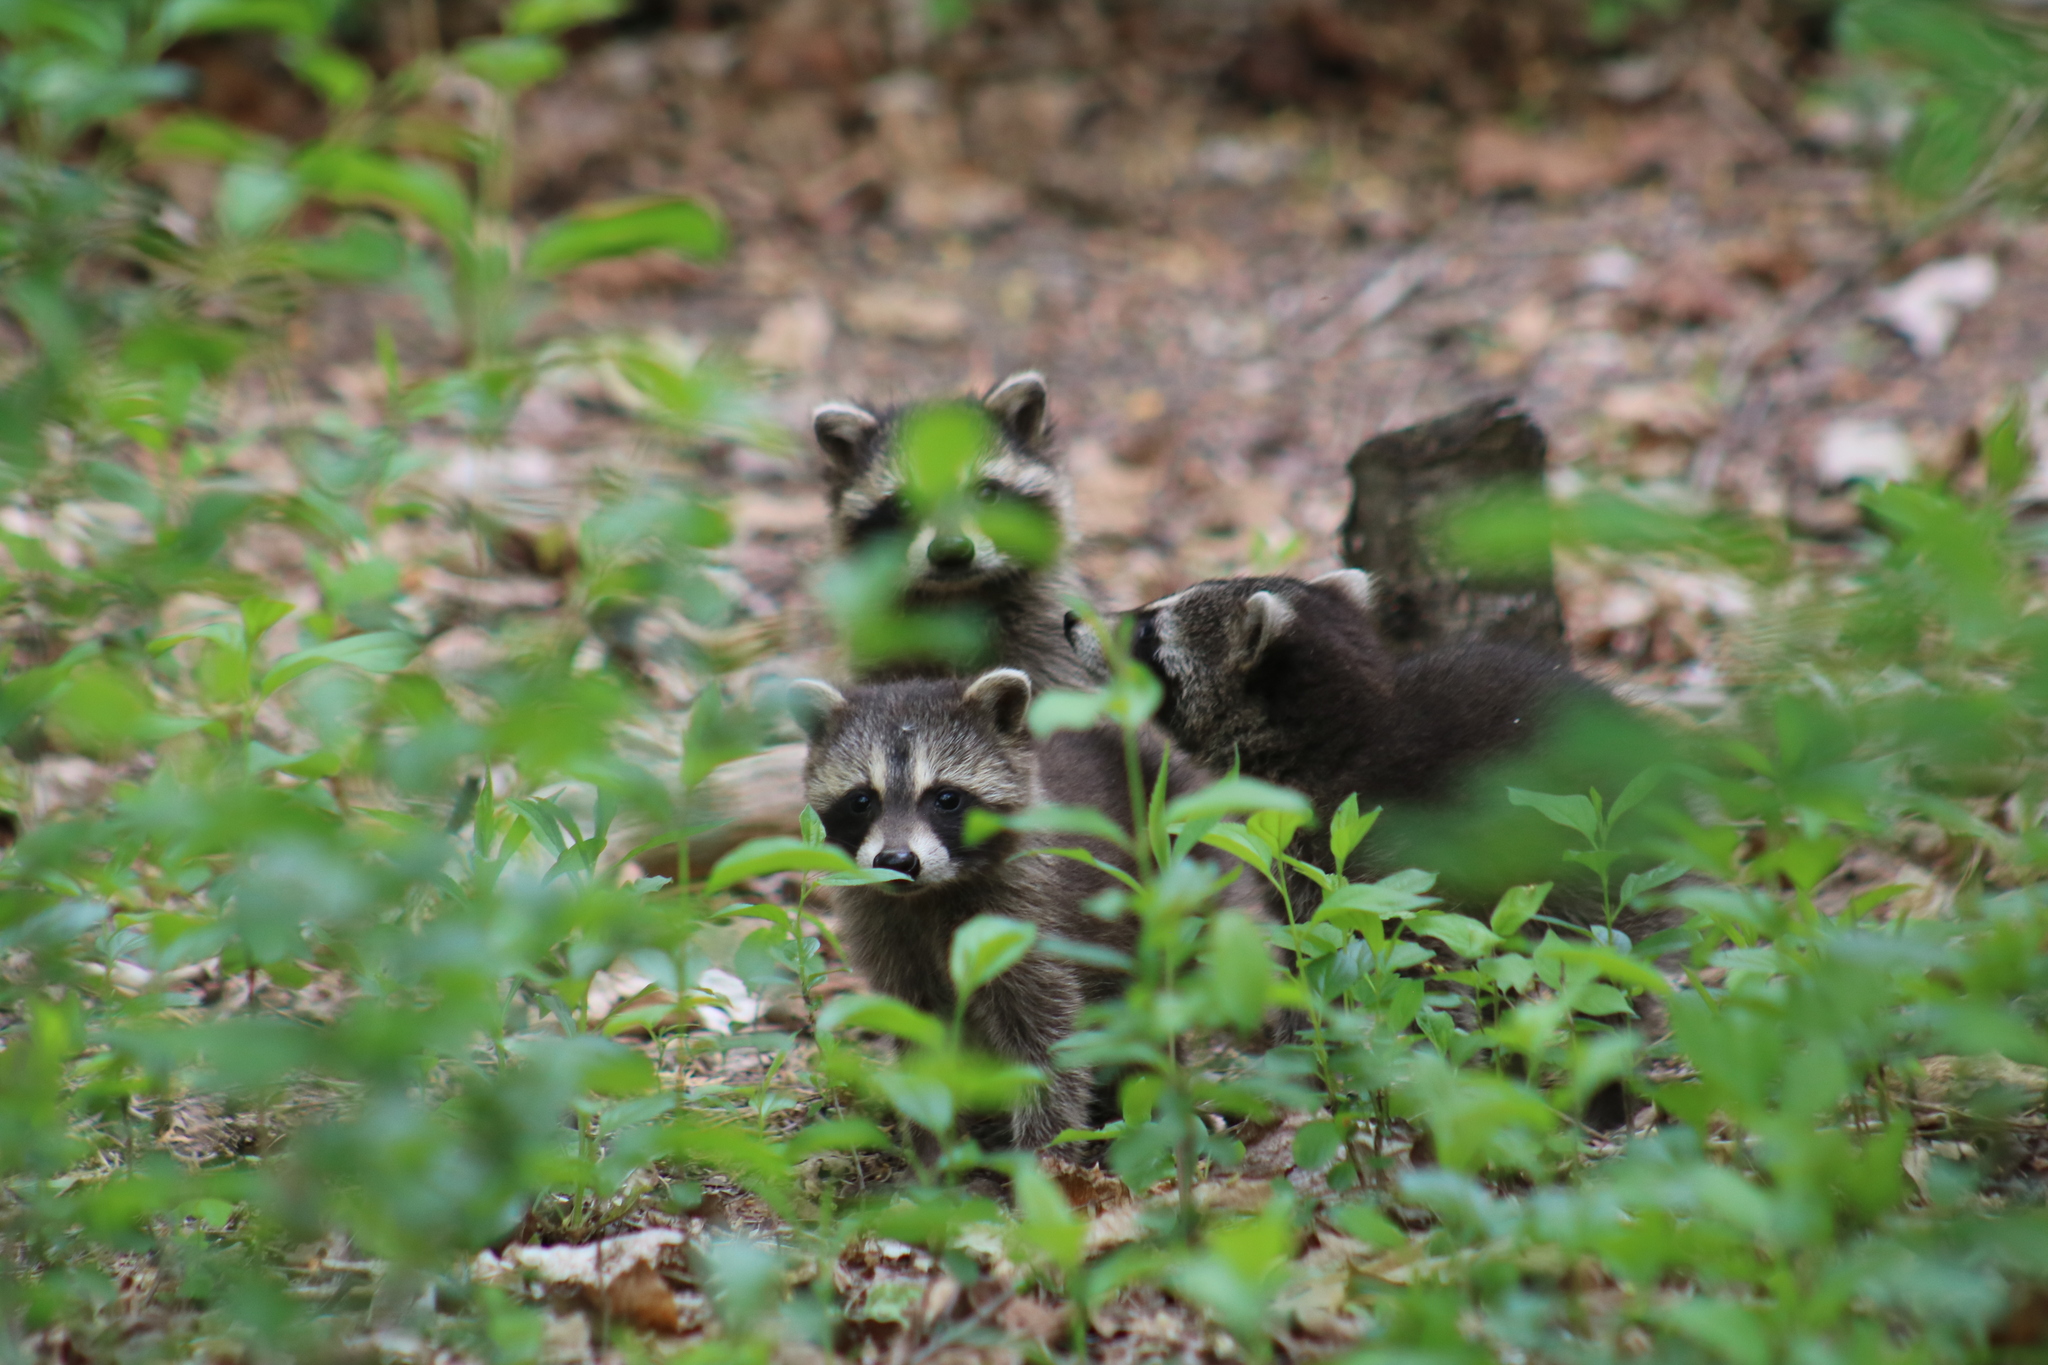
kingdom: Animalia
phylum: Chordata
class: Mammalia
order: Carnivora
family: Procyonidae
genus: Procyon
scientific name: Procyon lotor
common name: Raccoon
